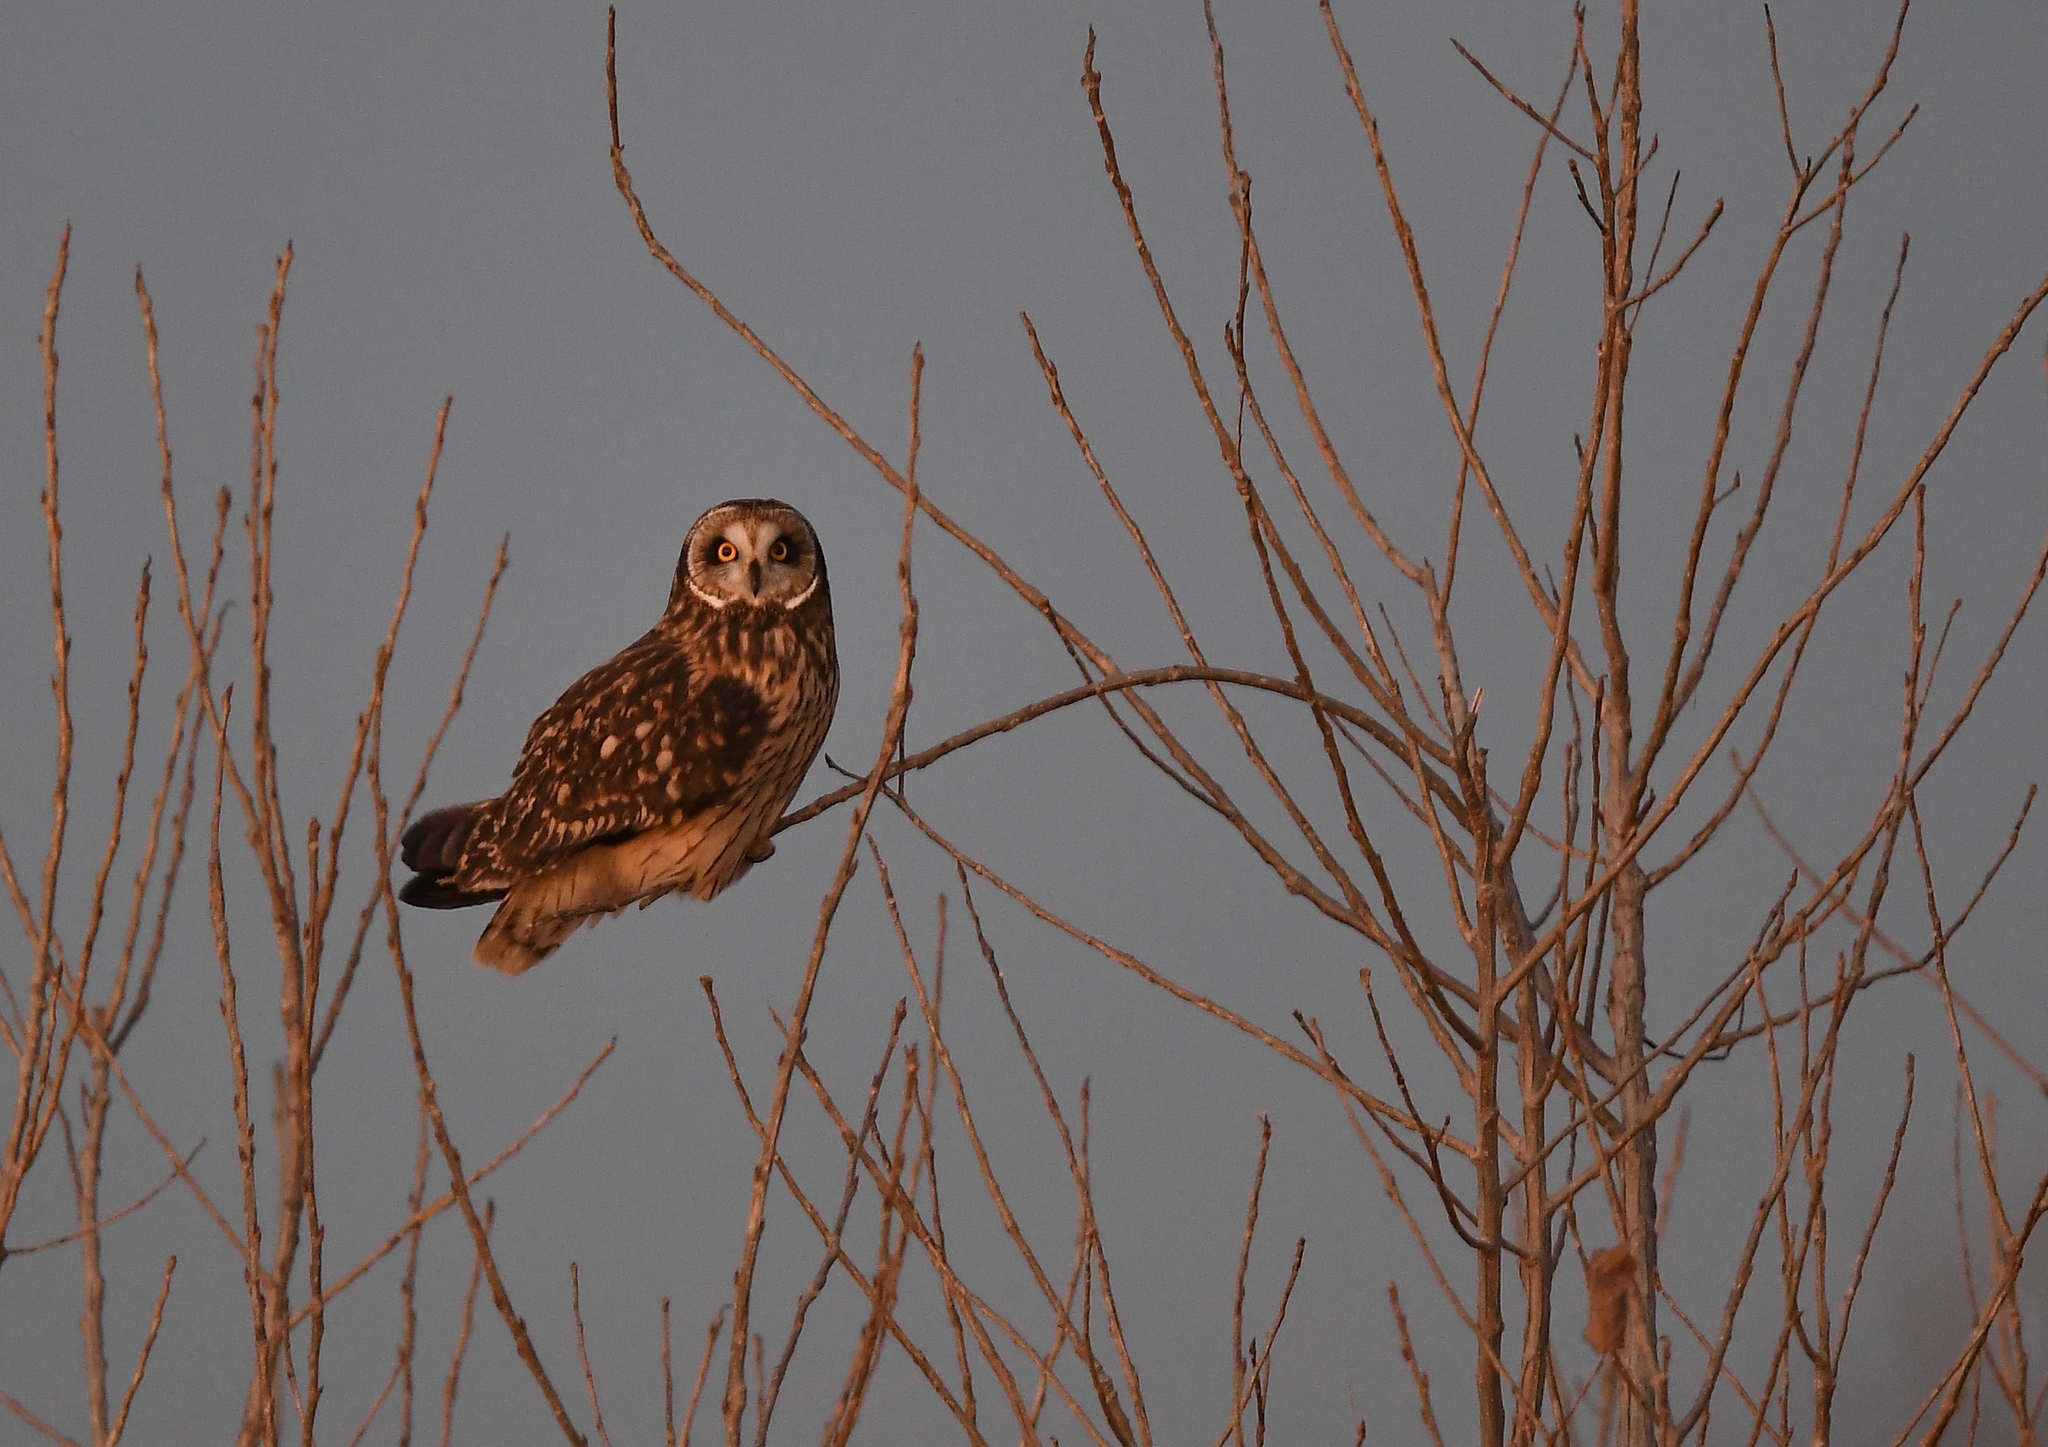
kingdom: Animalia
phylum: Chordata
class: Aves
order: Strigiformes
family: Strigidae
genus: Asio
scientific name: Asio flammeus
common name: Short-eared owl
